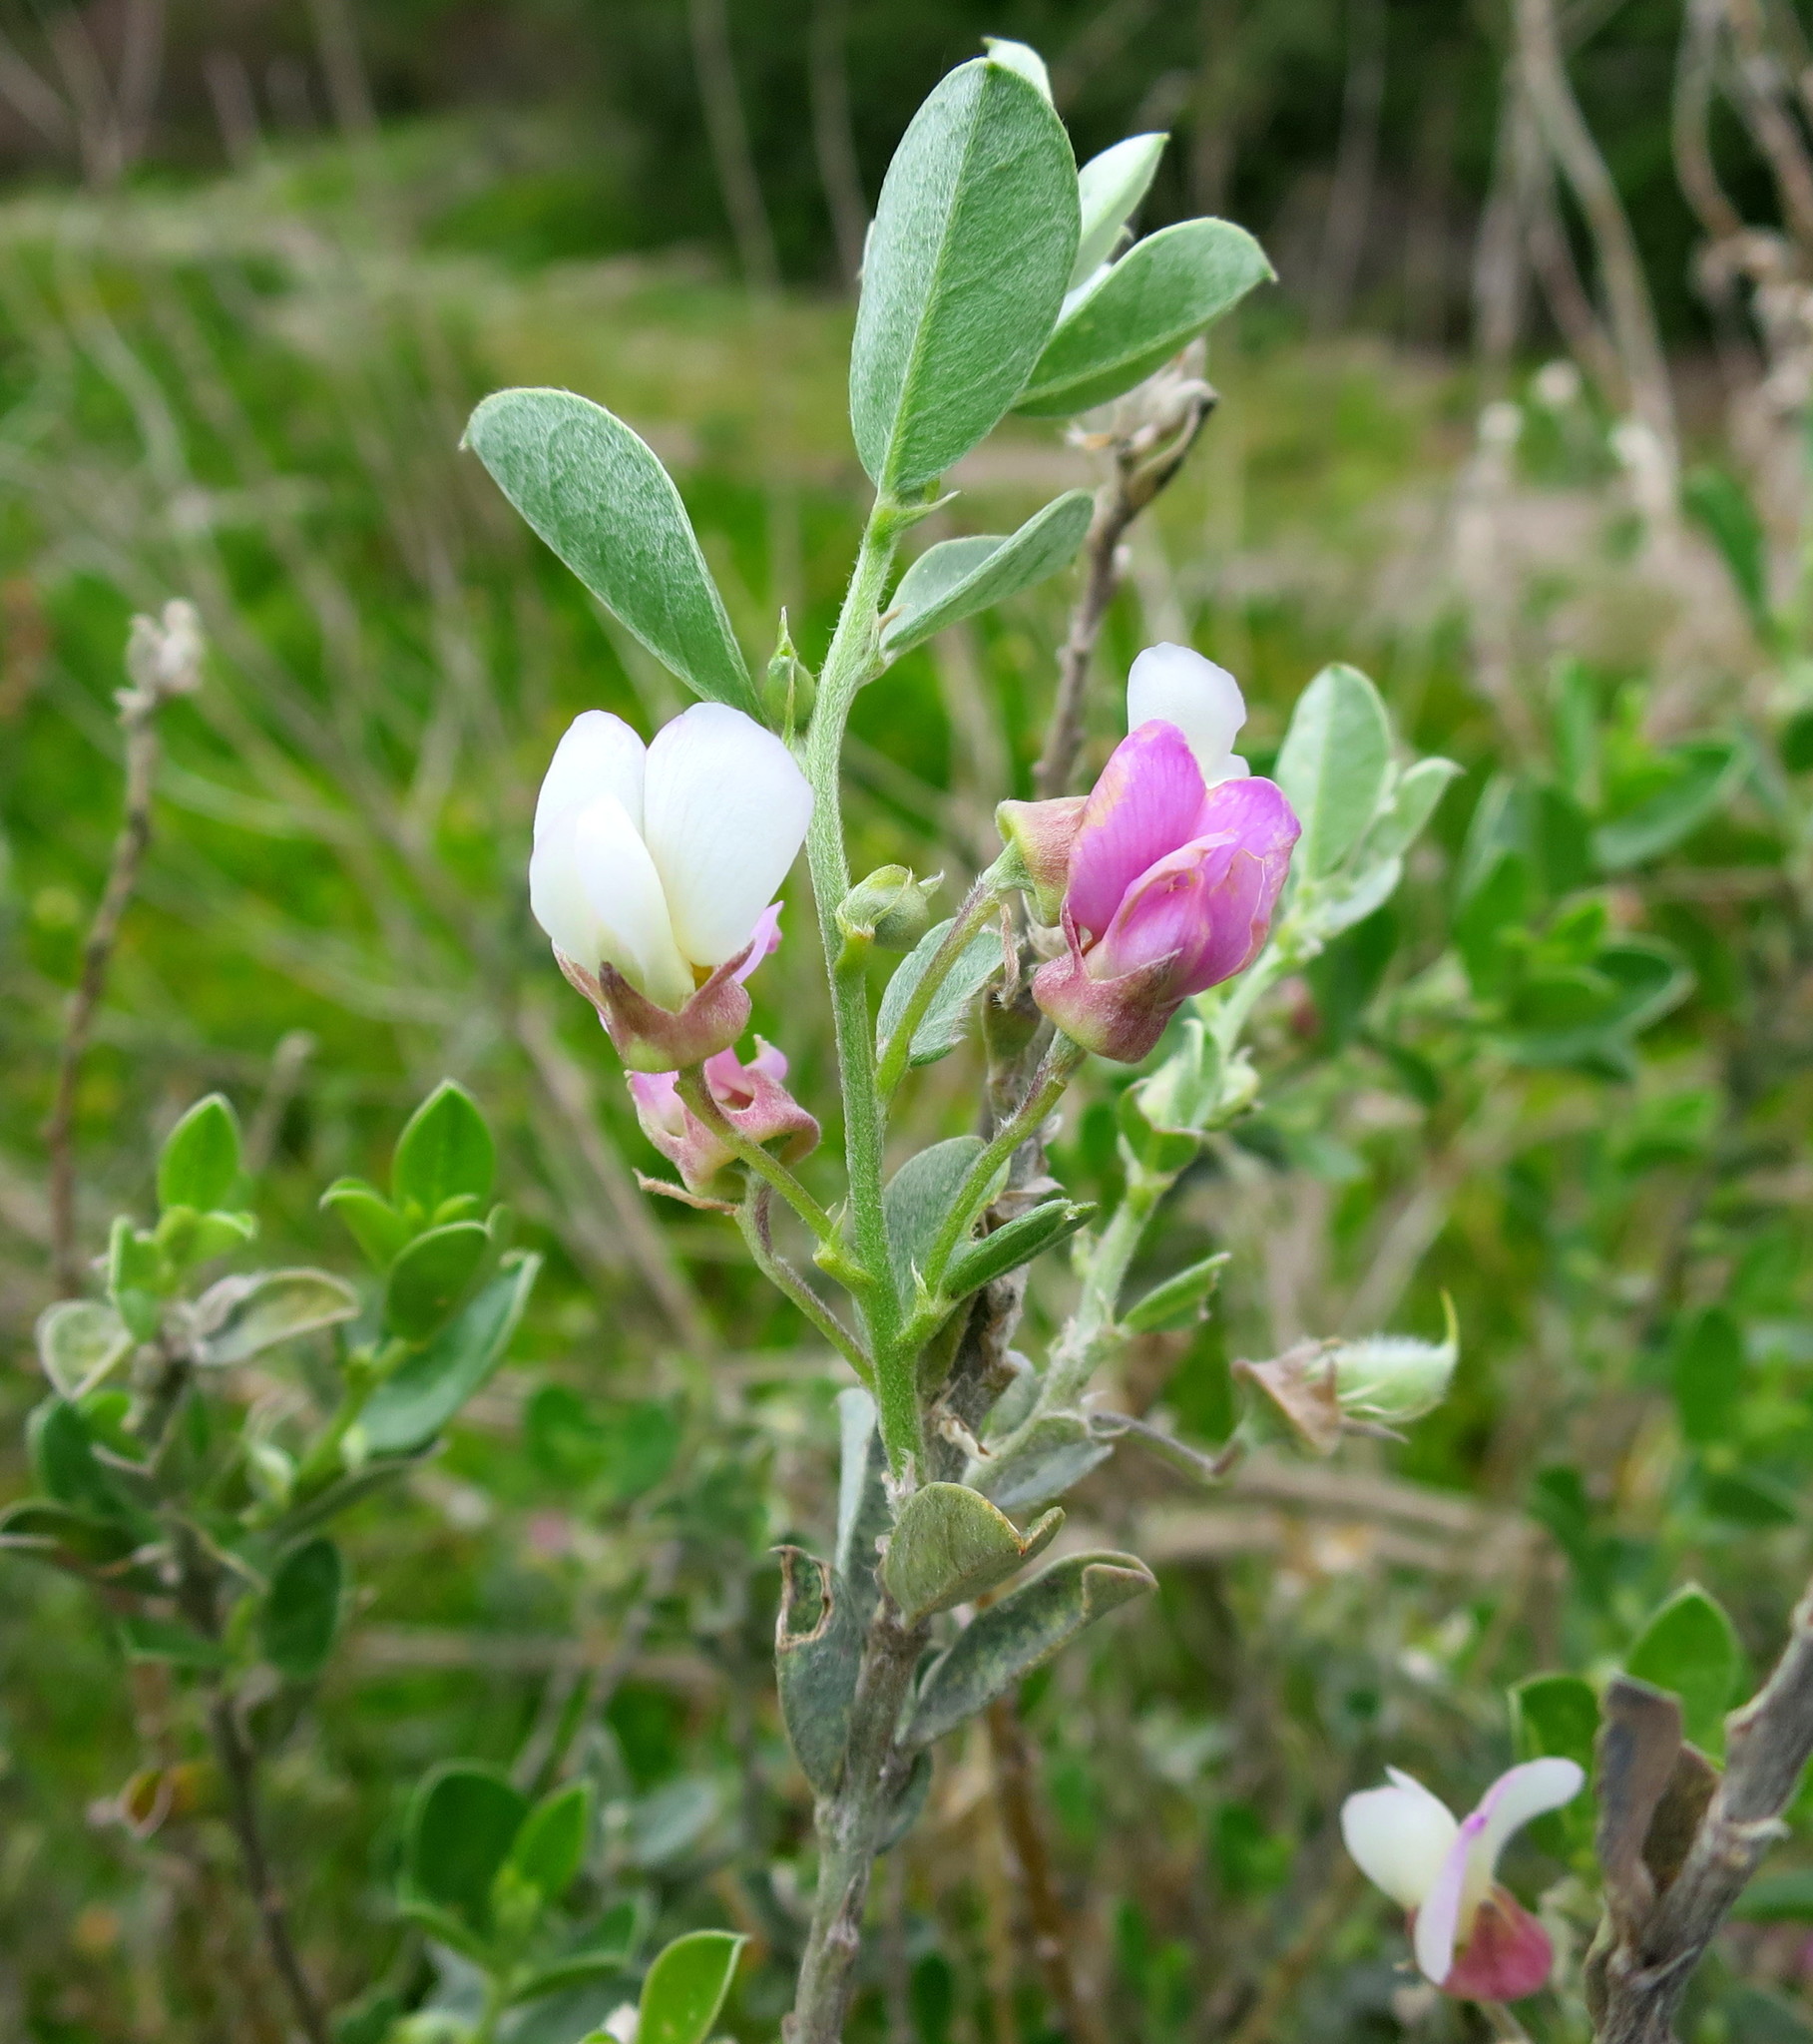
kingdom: Plantae
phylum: Tracheophyta
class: Magnoliopsida
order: Fabales
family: Fabaceae
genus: Podalyria
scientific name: Podalyria myrtillifolia
